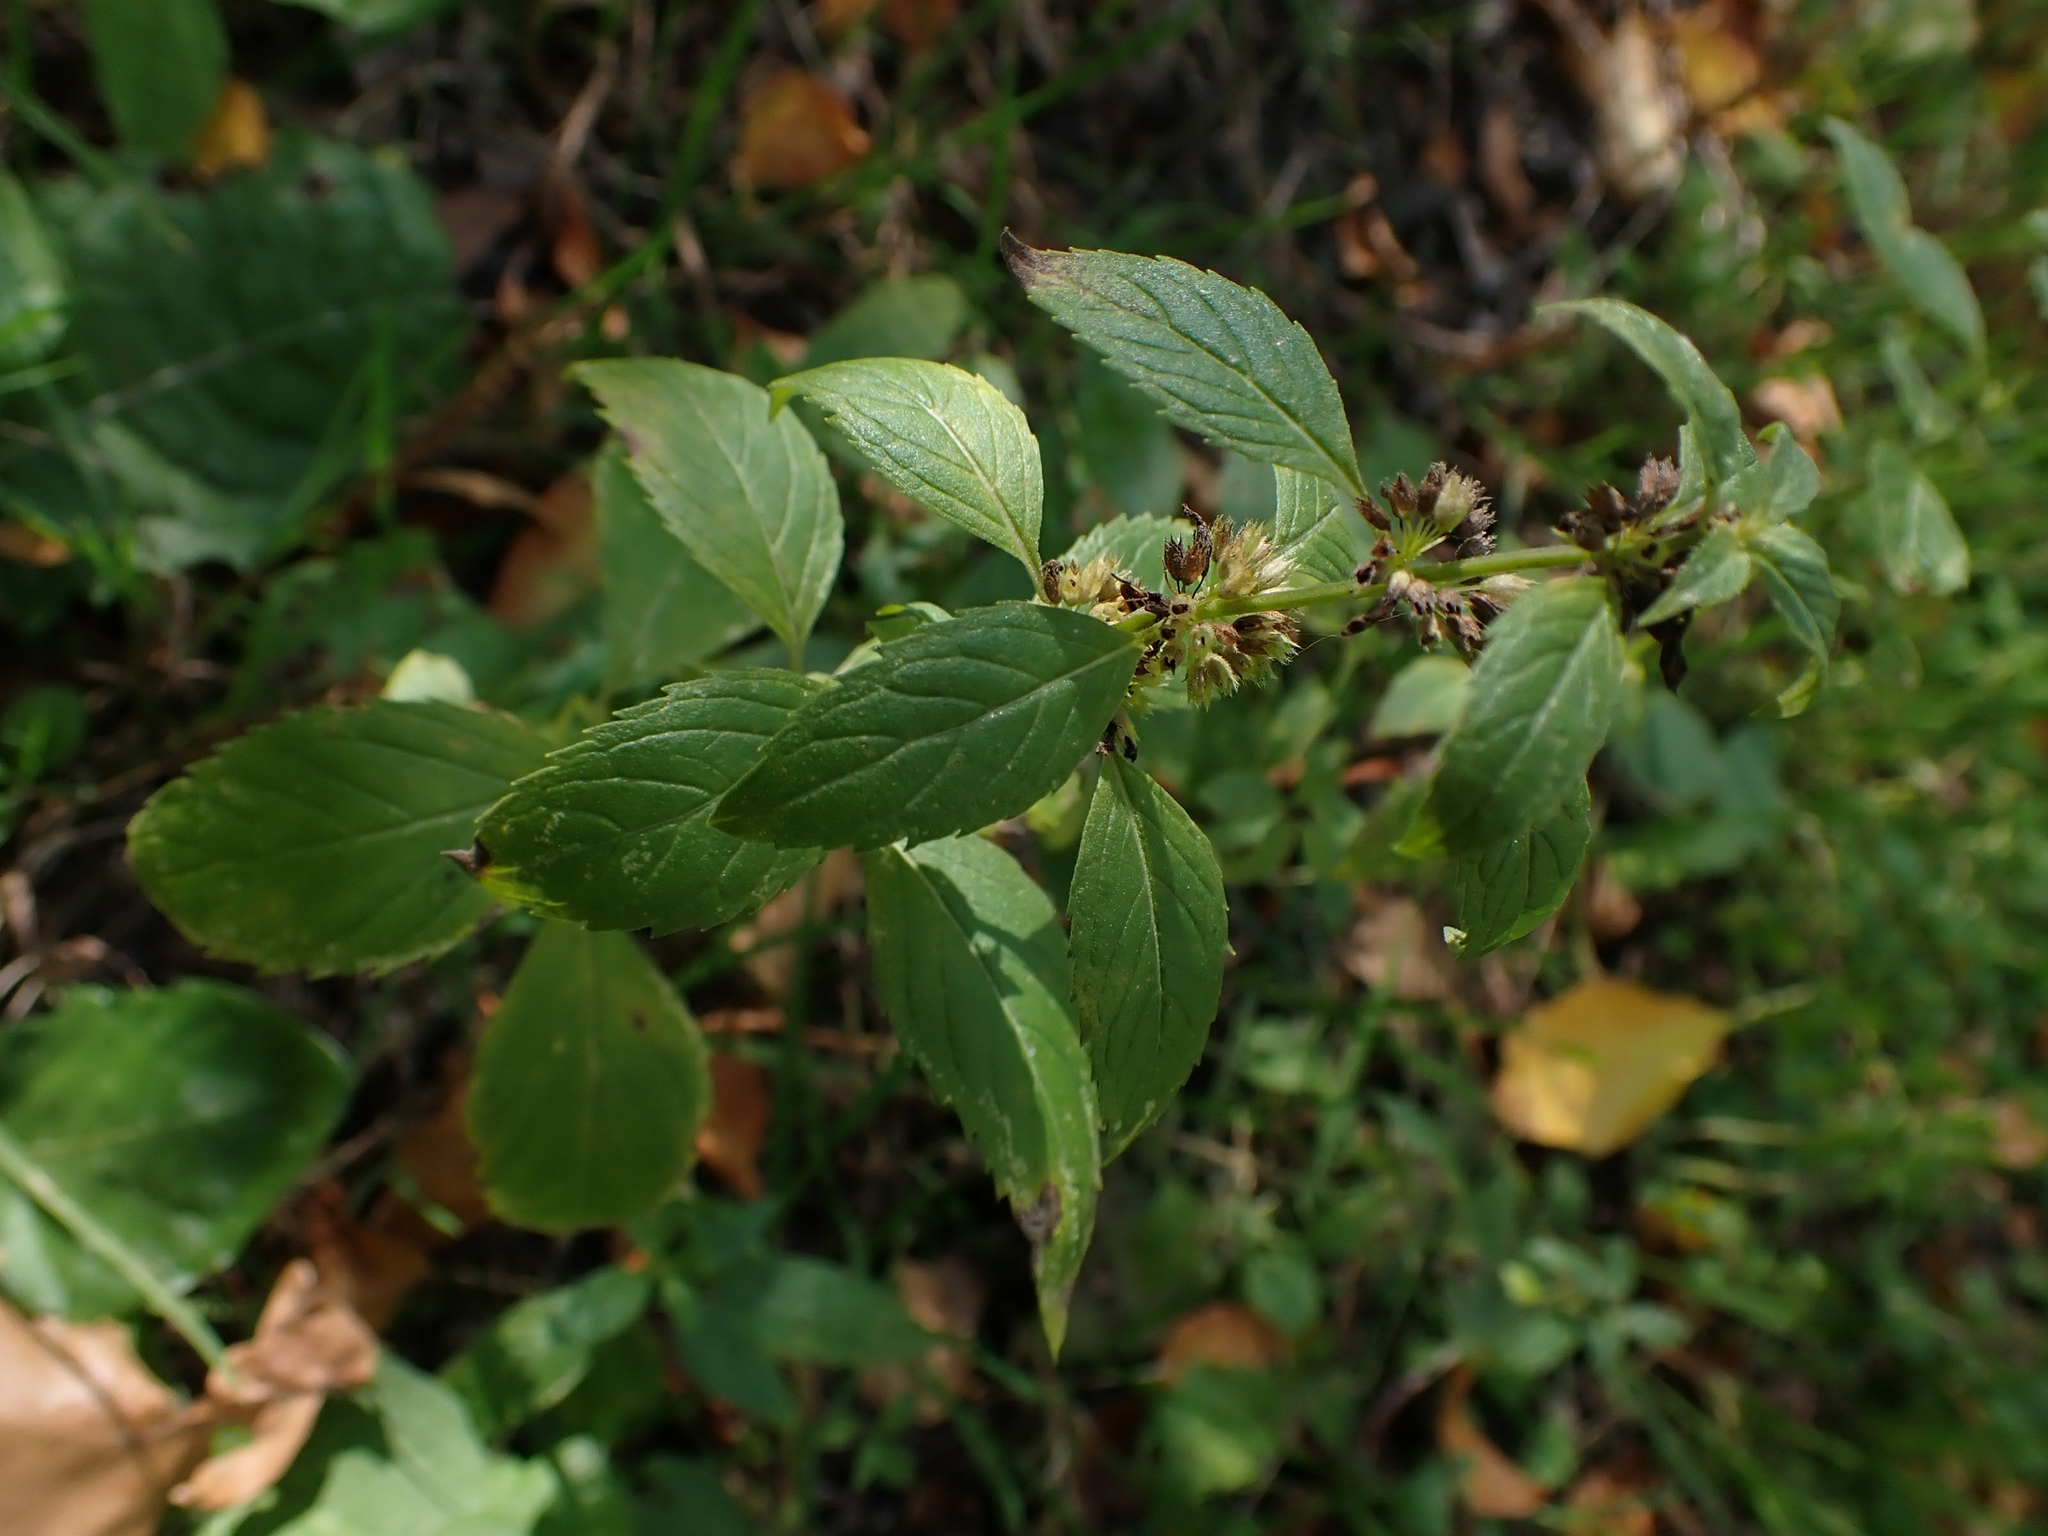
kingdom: Plantae
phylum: Tracheophyta
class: Magnoliopsida
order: Lamiales
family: Lamiaceae
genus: Mentha
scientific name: Mentha canadensis
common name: American corn mint
